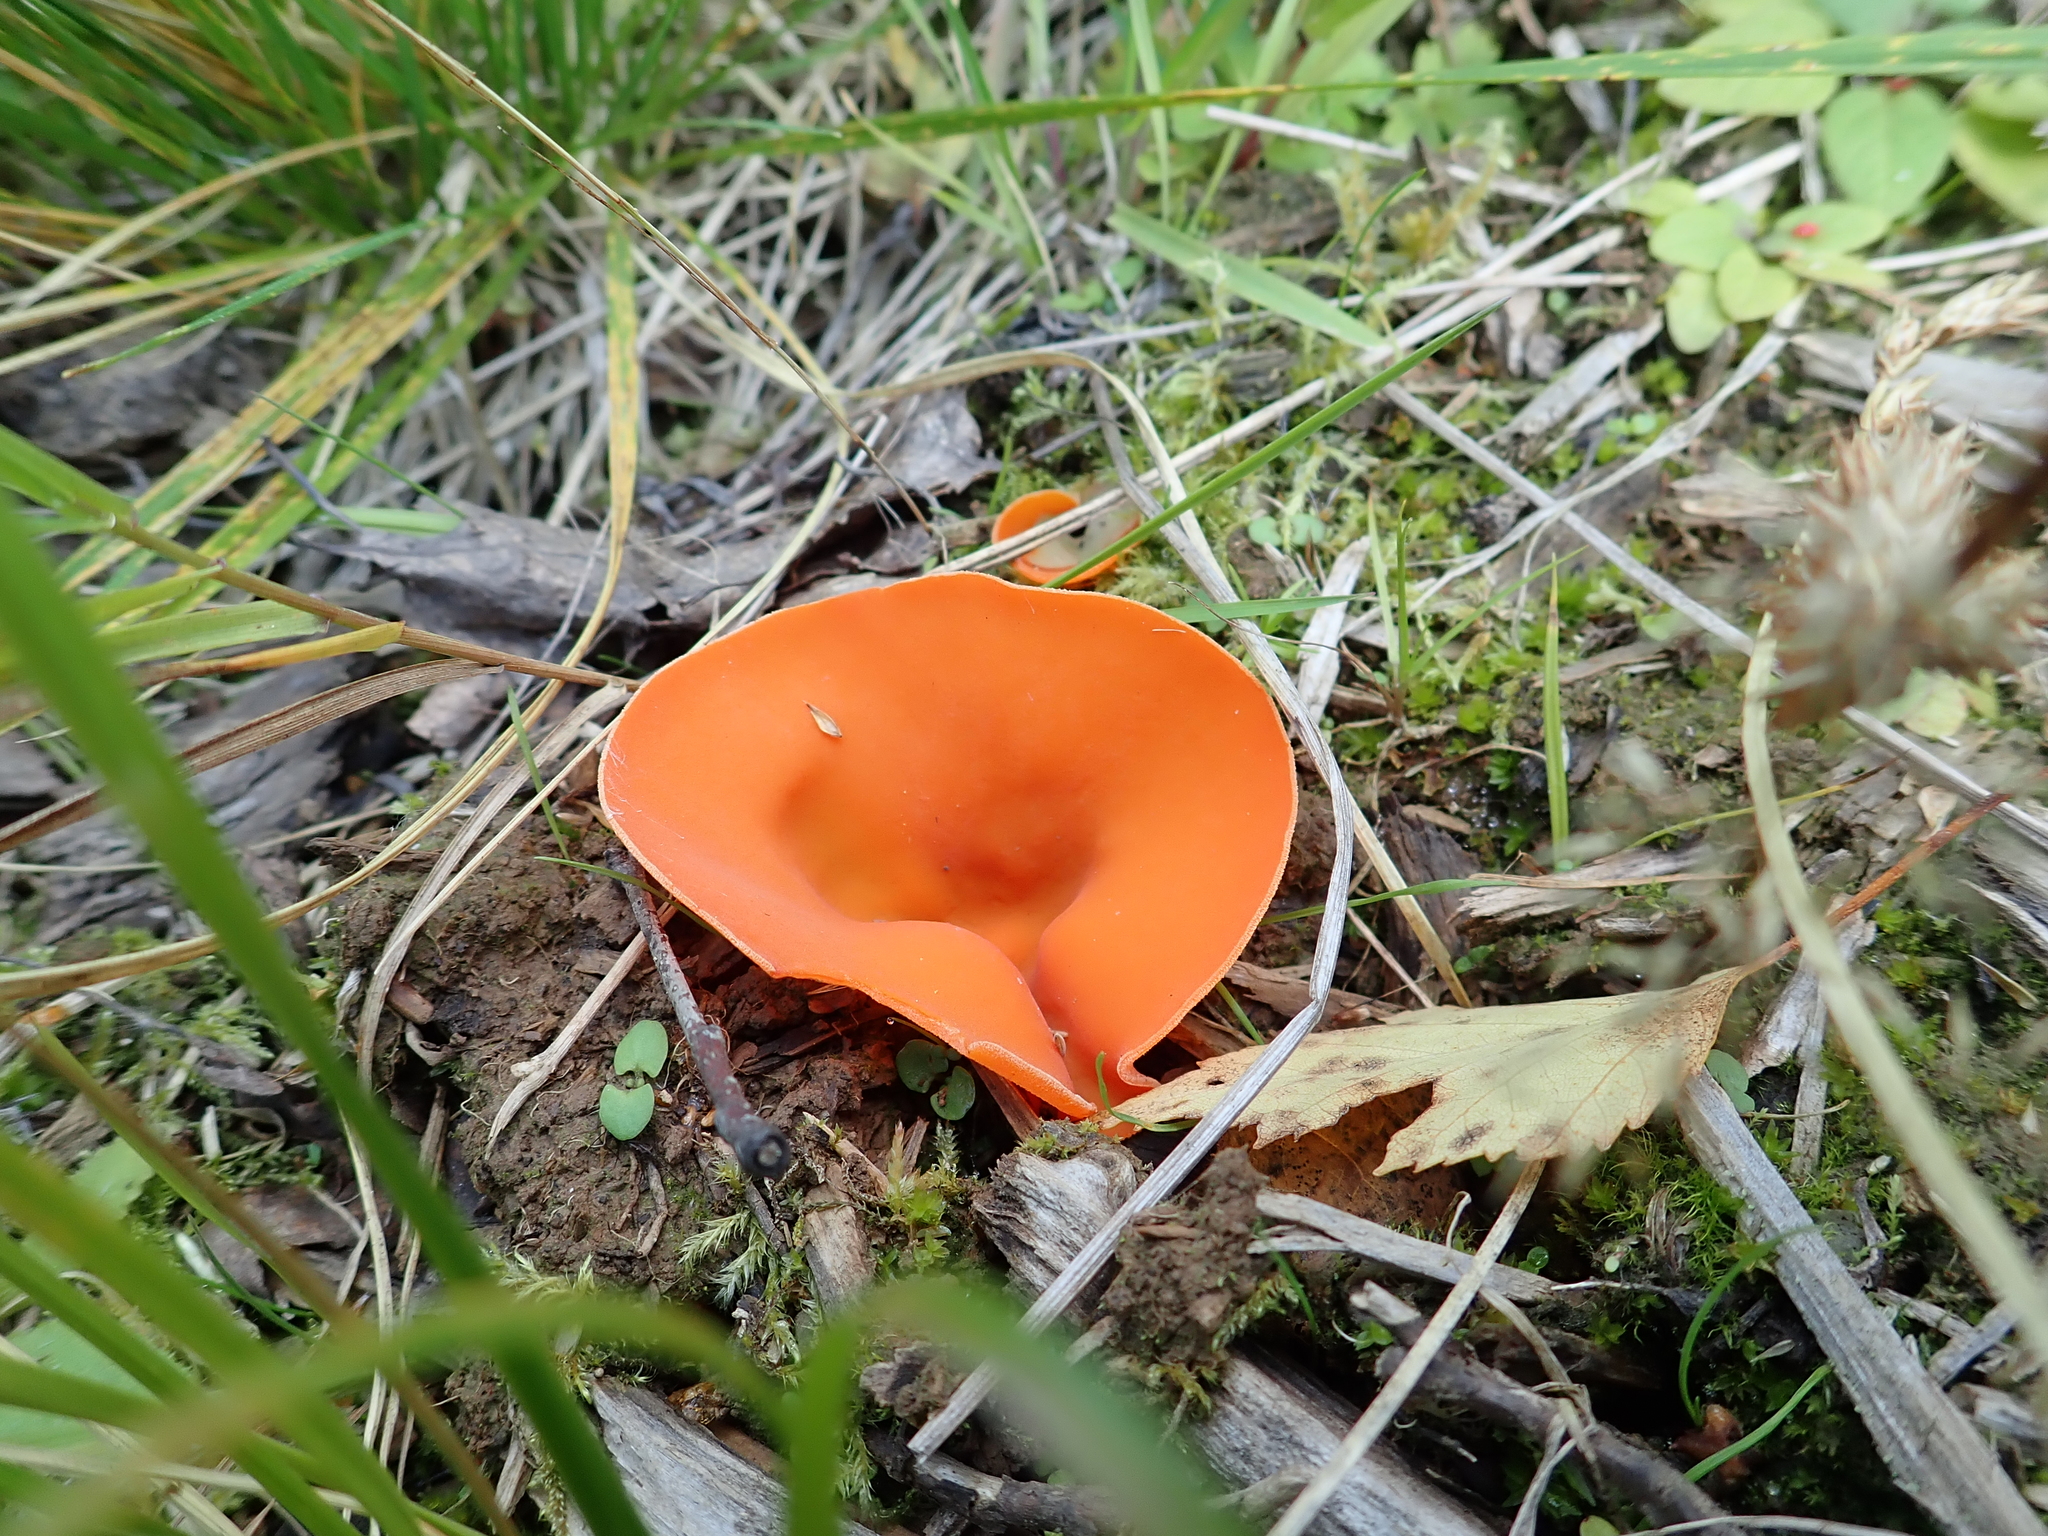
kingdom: Fungi
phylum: Ascomycota
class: Pezizomycetes
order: Pezizales
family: Pyronemataceae
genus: Aleuria
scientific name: Aleuria aurantia
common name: Orange peel fungus
